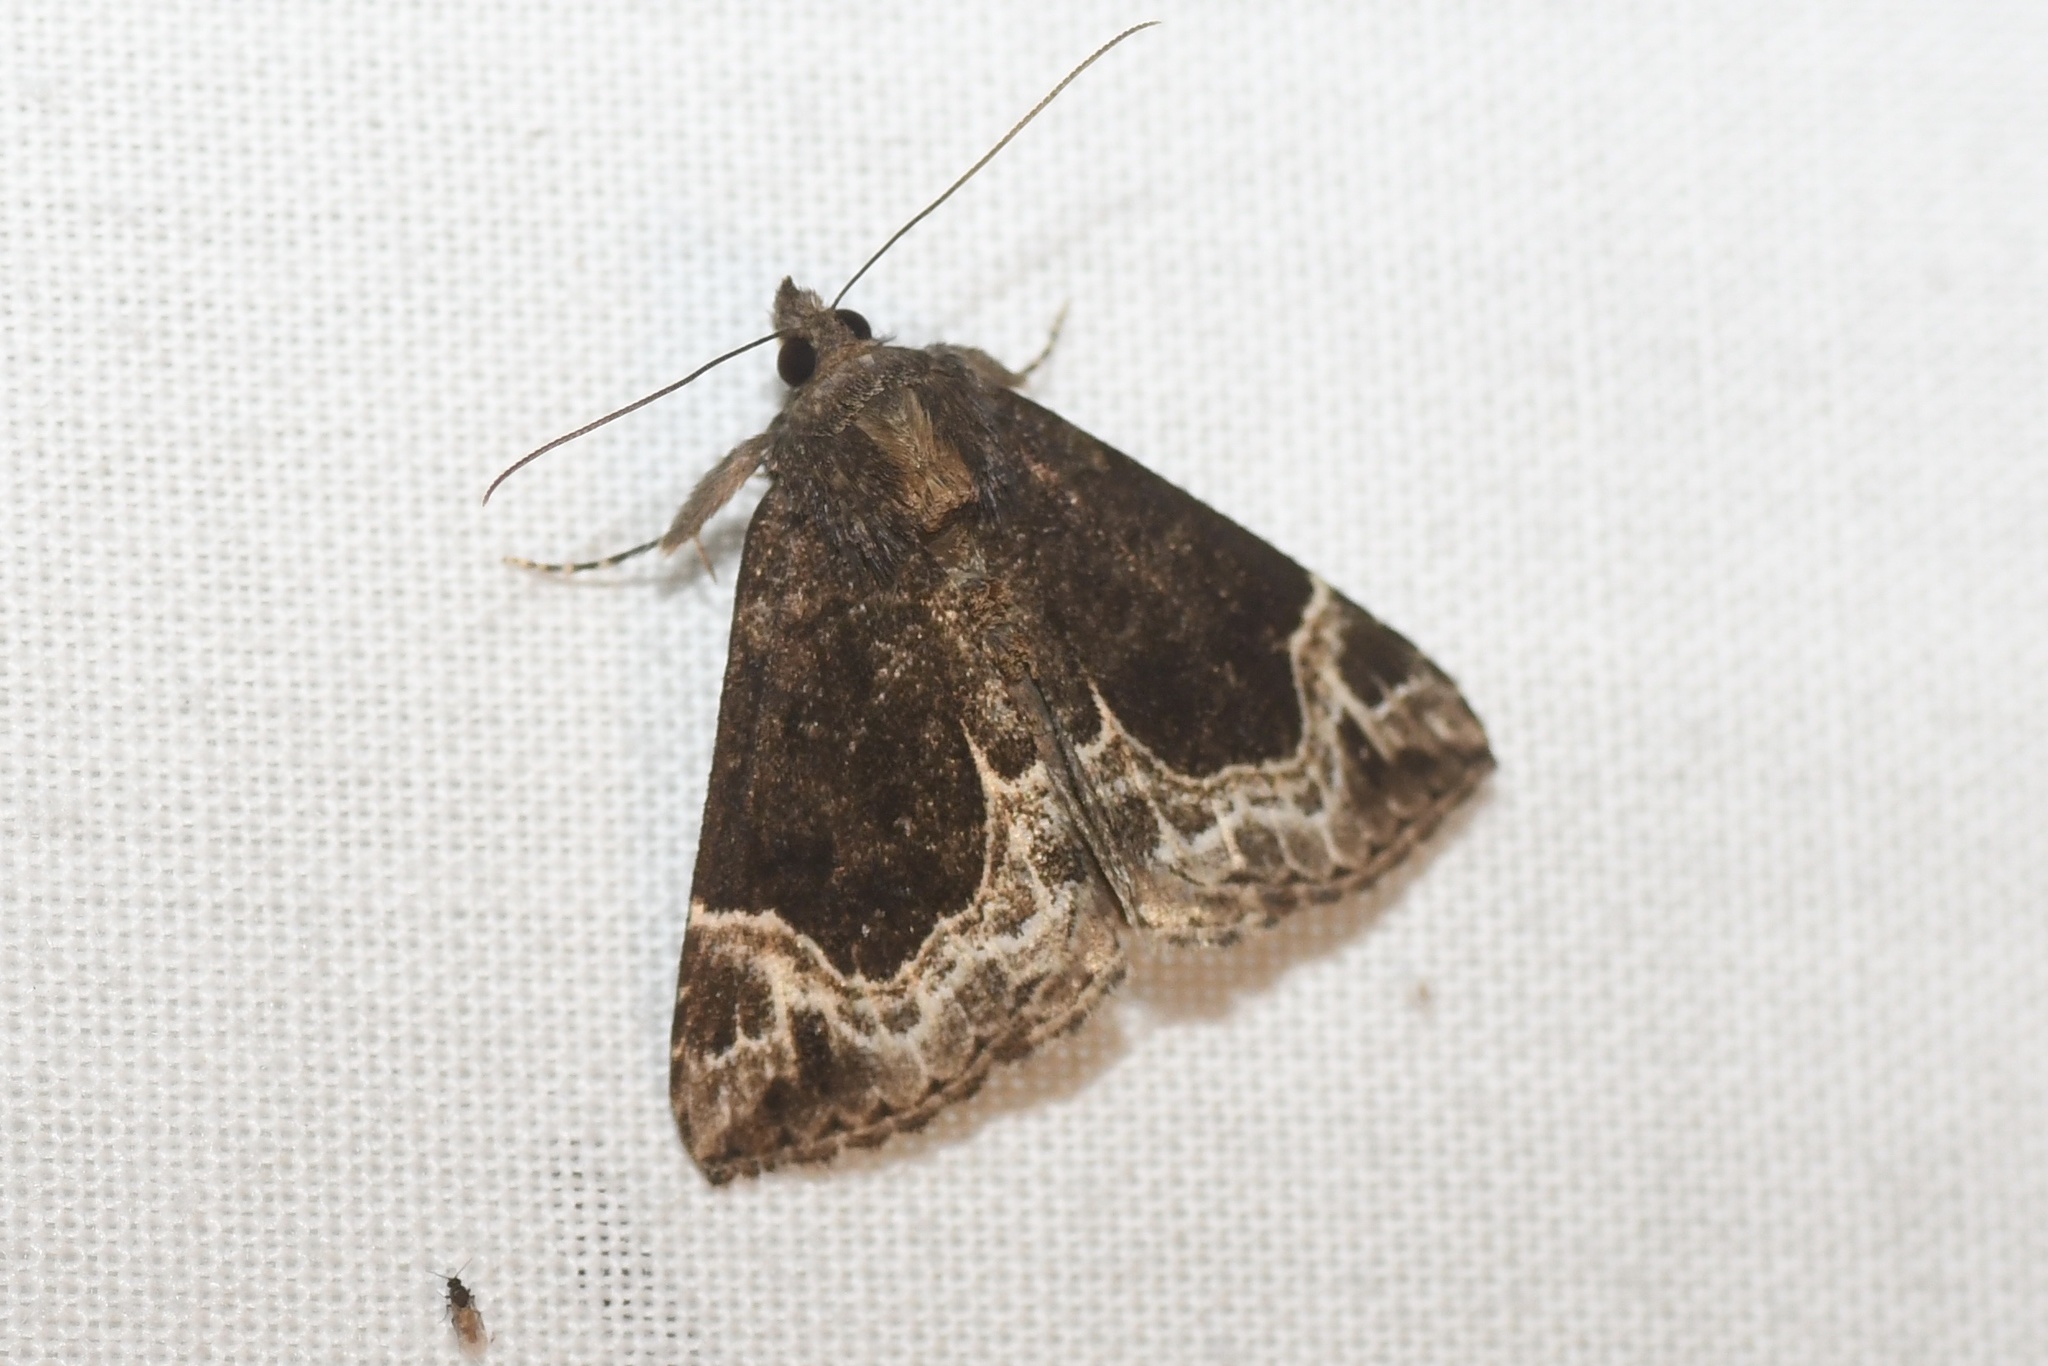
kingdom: Animalia
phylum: Arthropoda
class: Insecta
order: Lepidoptera
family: Erebidae
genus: Hypena
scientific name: Hypena abalienalis
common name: White-lined snout
